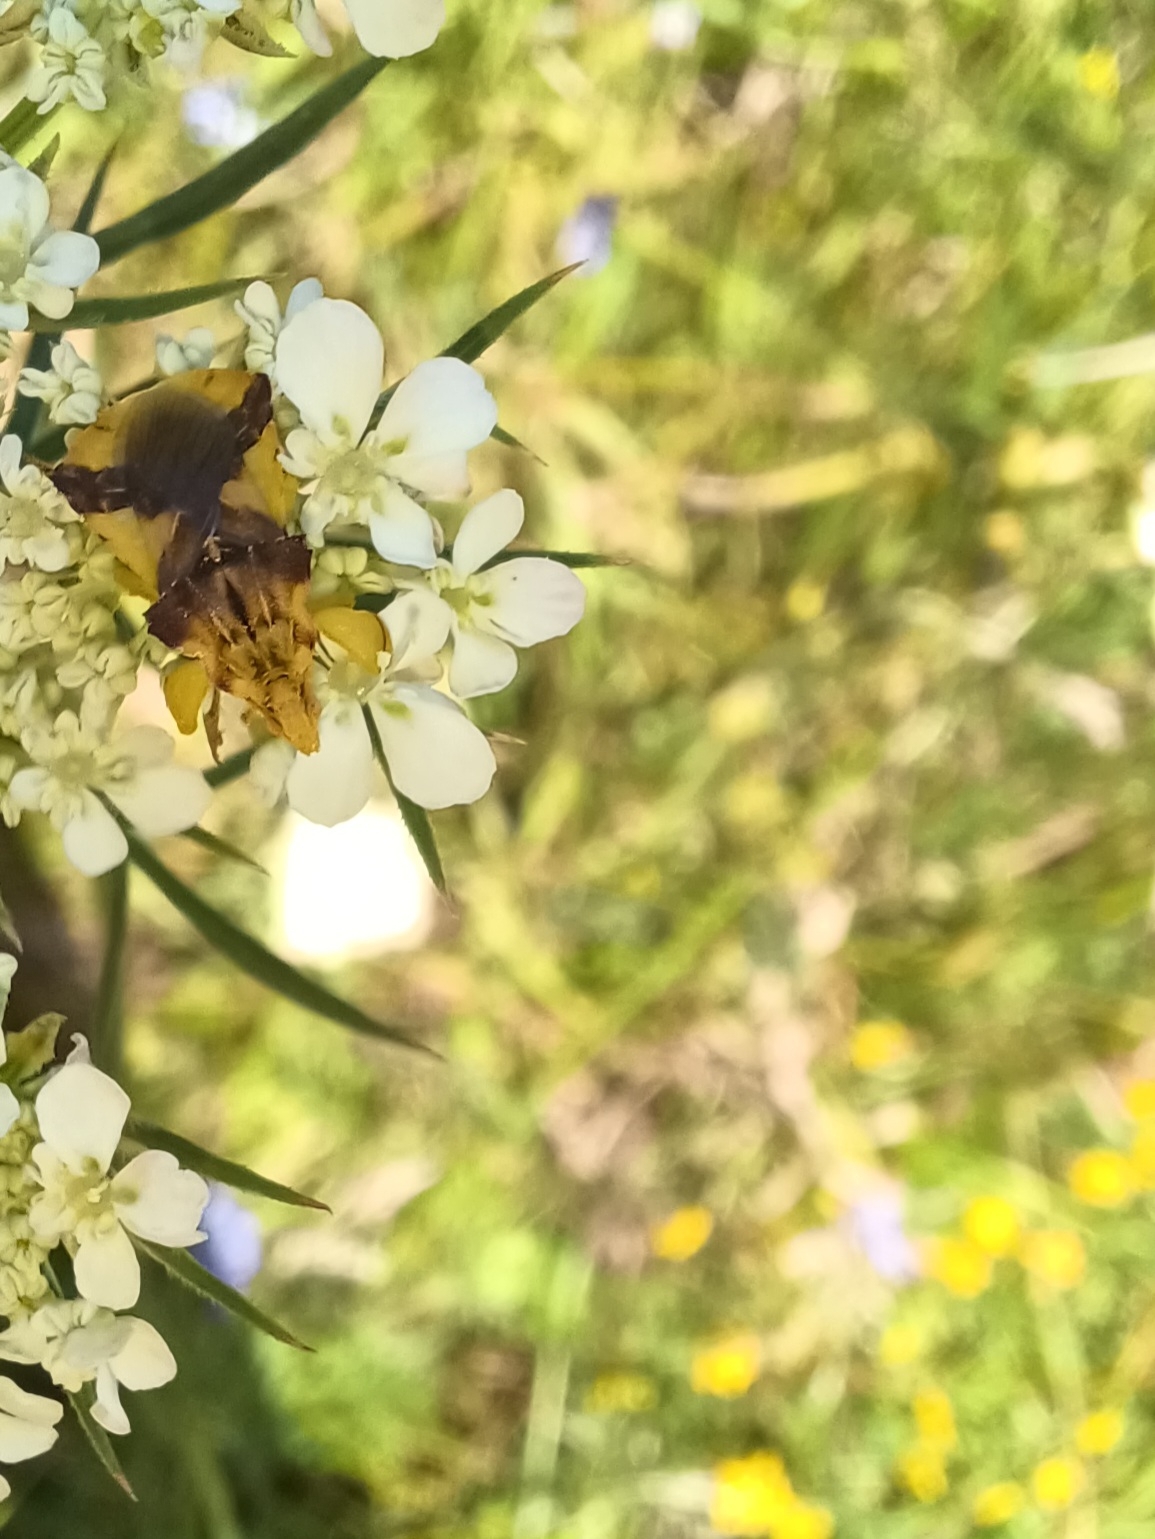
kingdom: Animalia
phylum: Arthropoda
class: Insecta
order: Hemiptera
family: Reduviidae
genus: Phymata
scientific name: Phymata americana
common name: Jagged ambush bug
